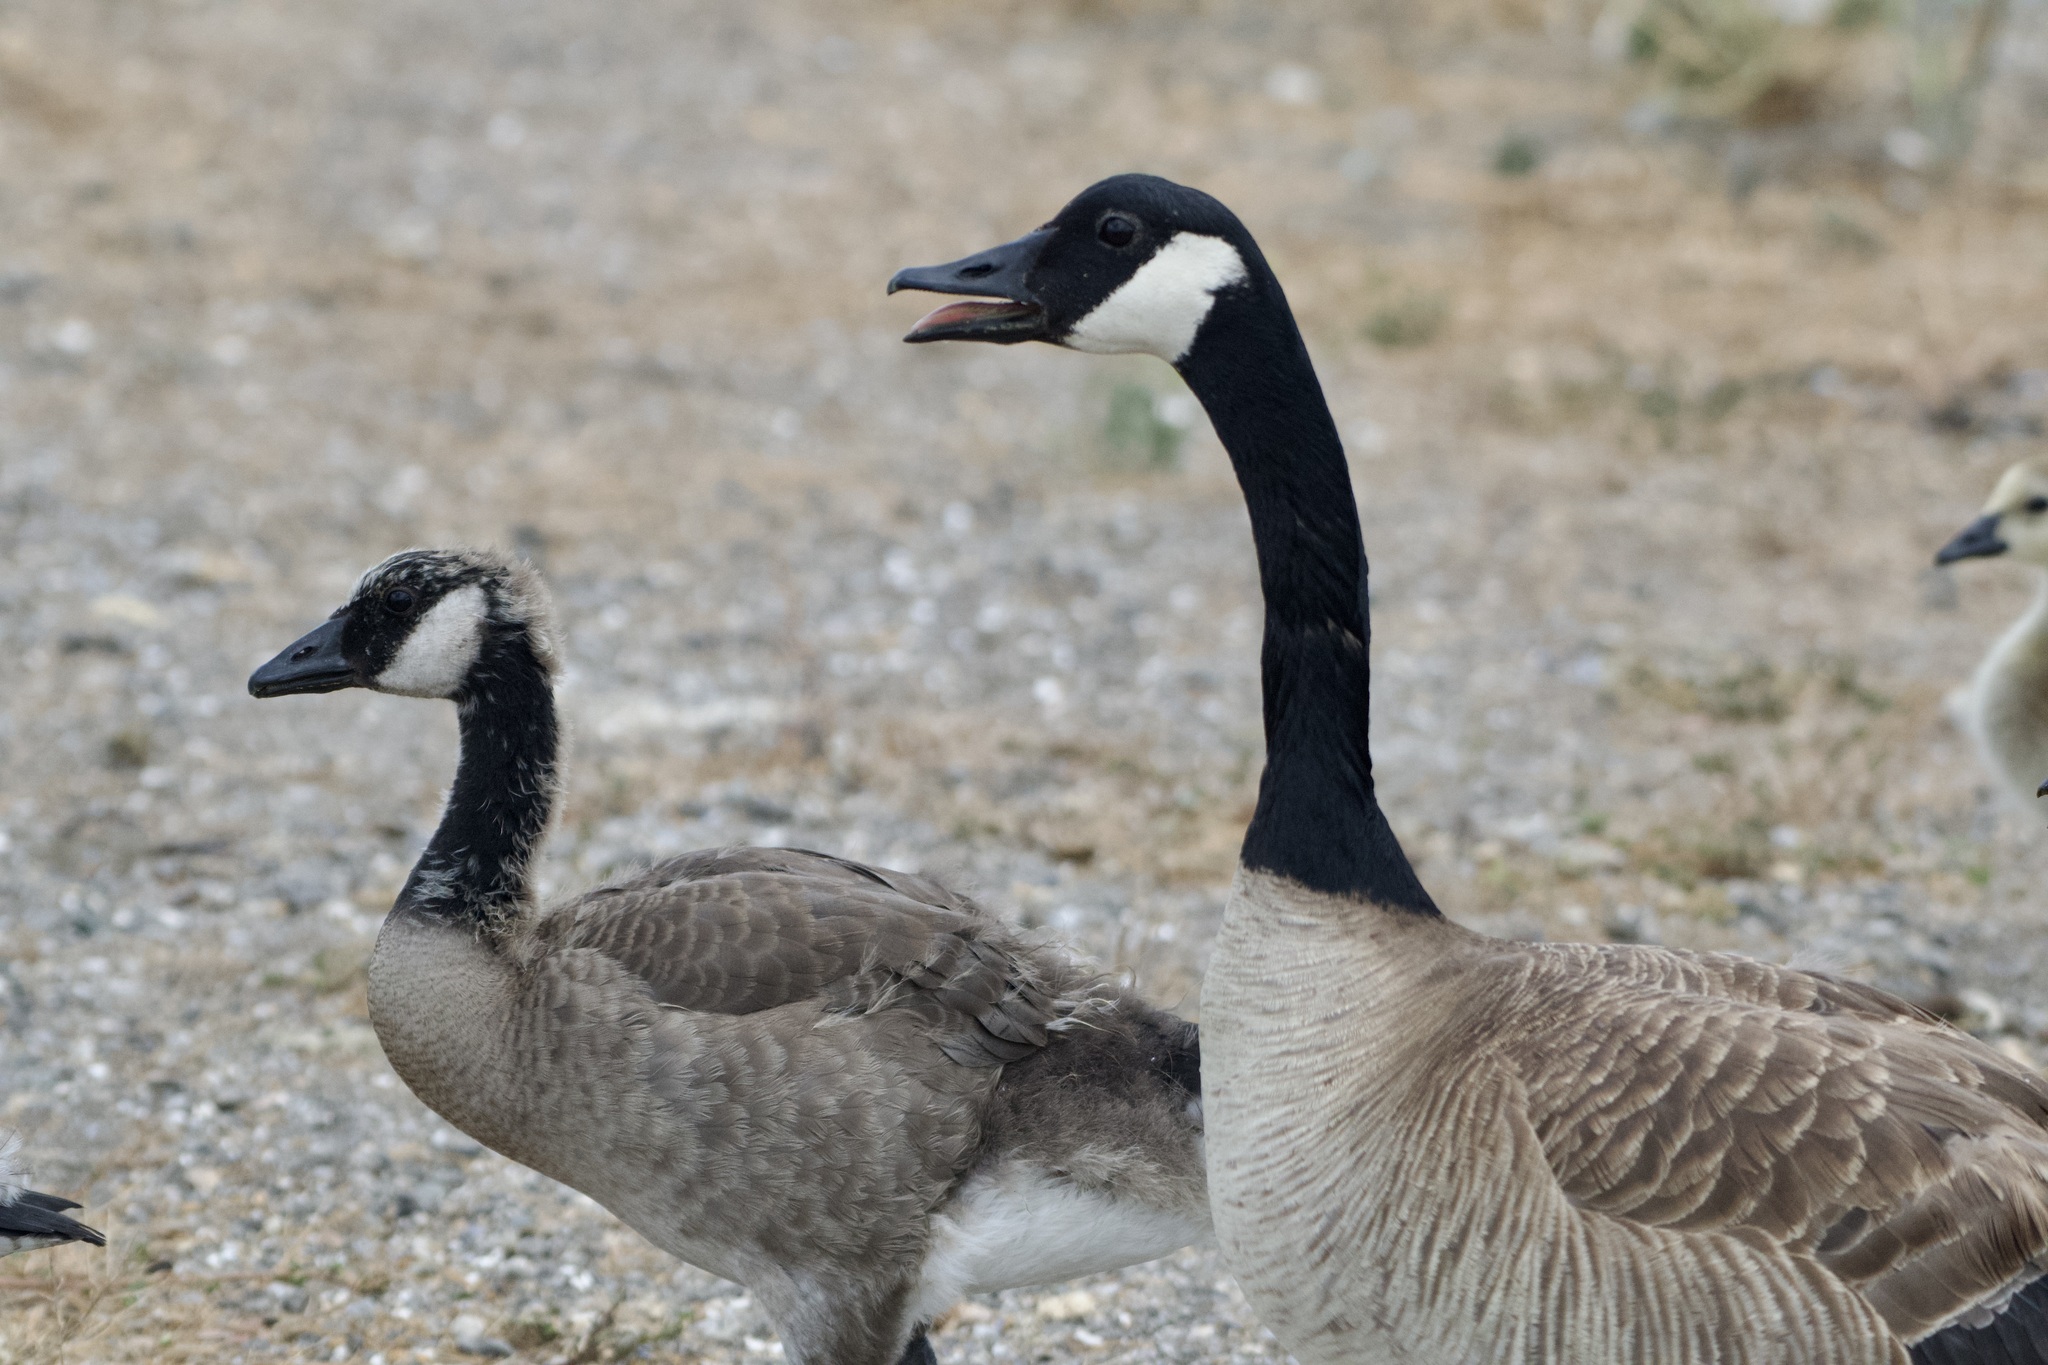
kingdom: Animalia
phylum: Chordata
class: Aves
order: Anseriformes
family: Anatidae
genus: Branta
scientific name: Branta canadensis
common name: Canada goose
